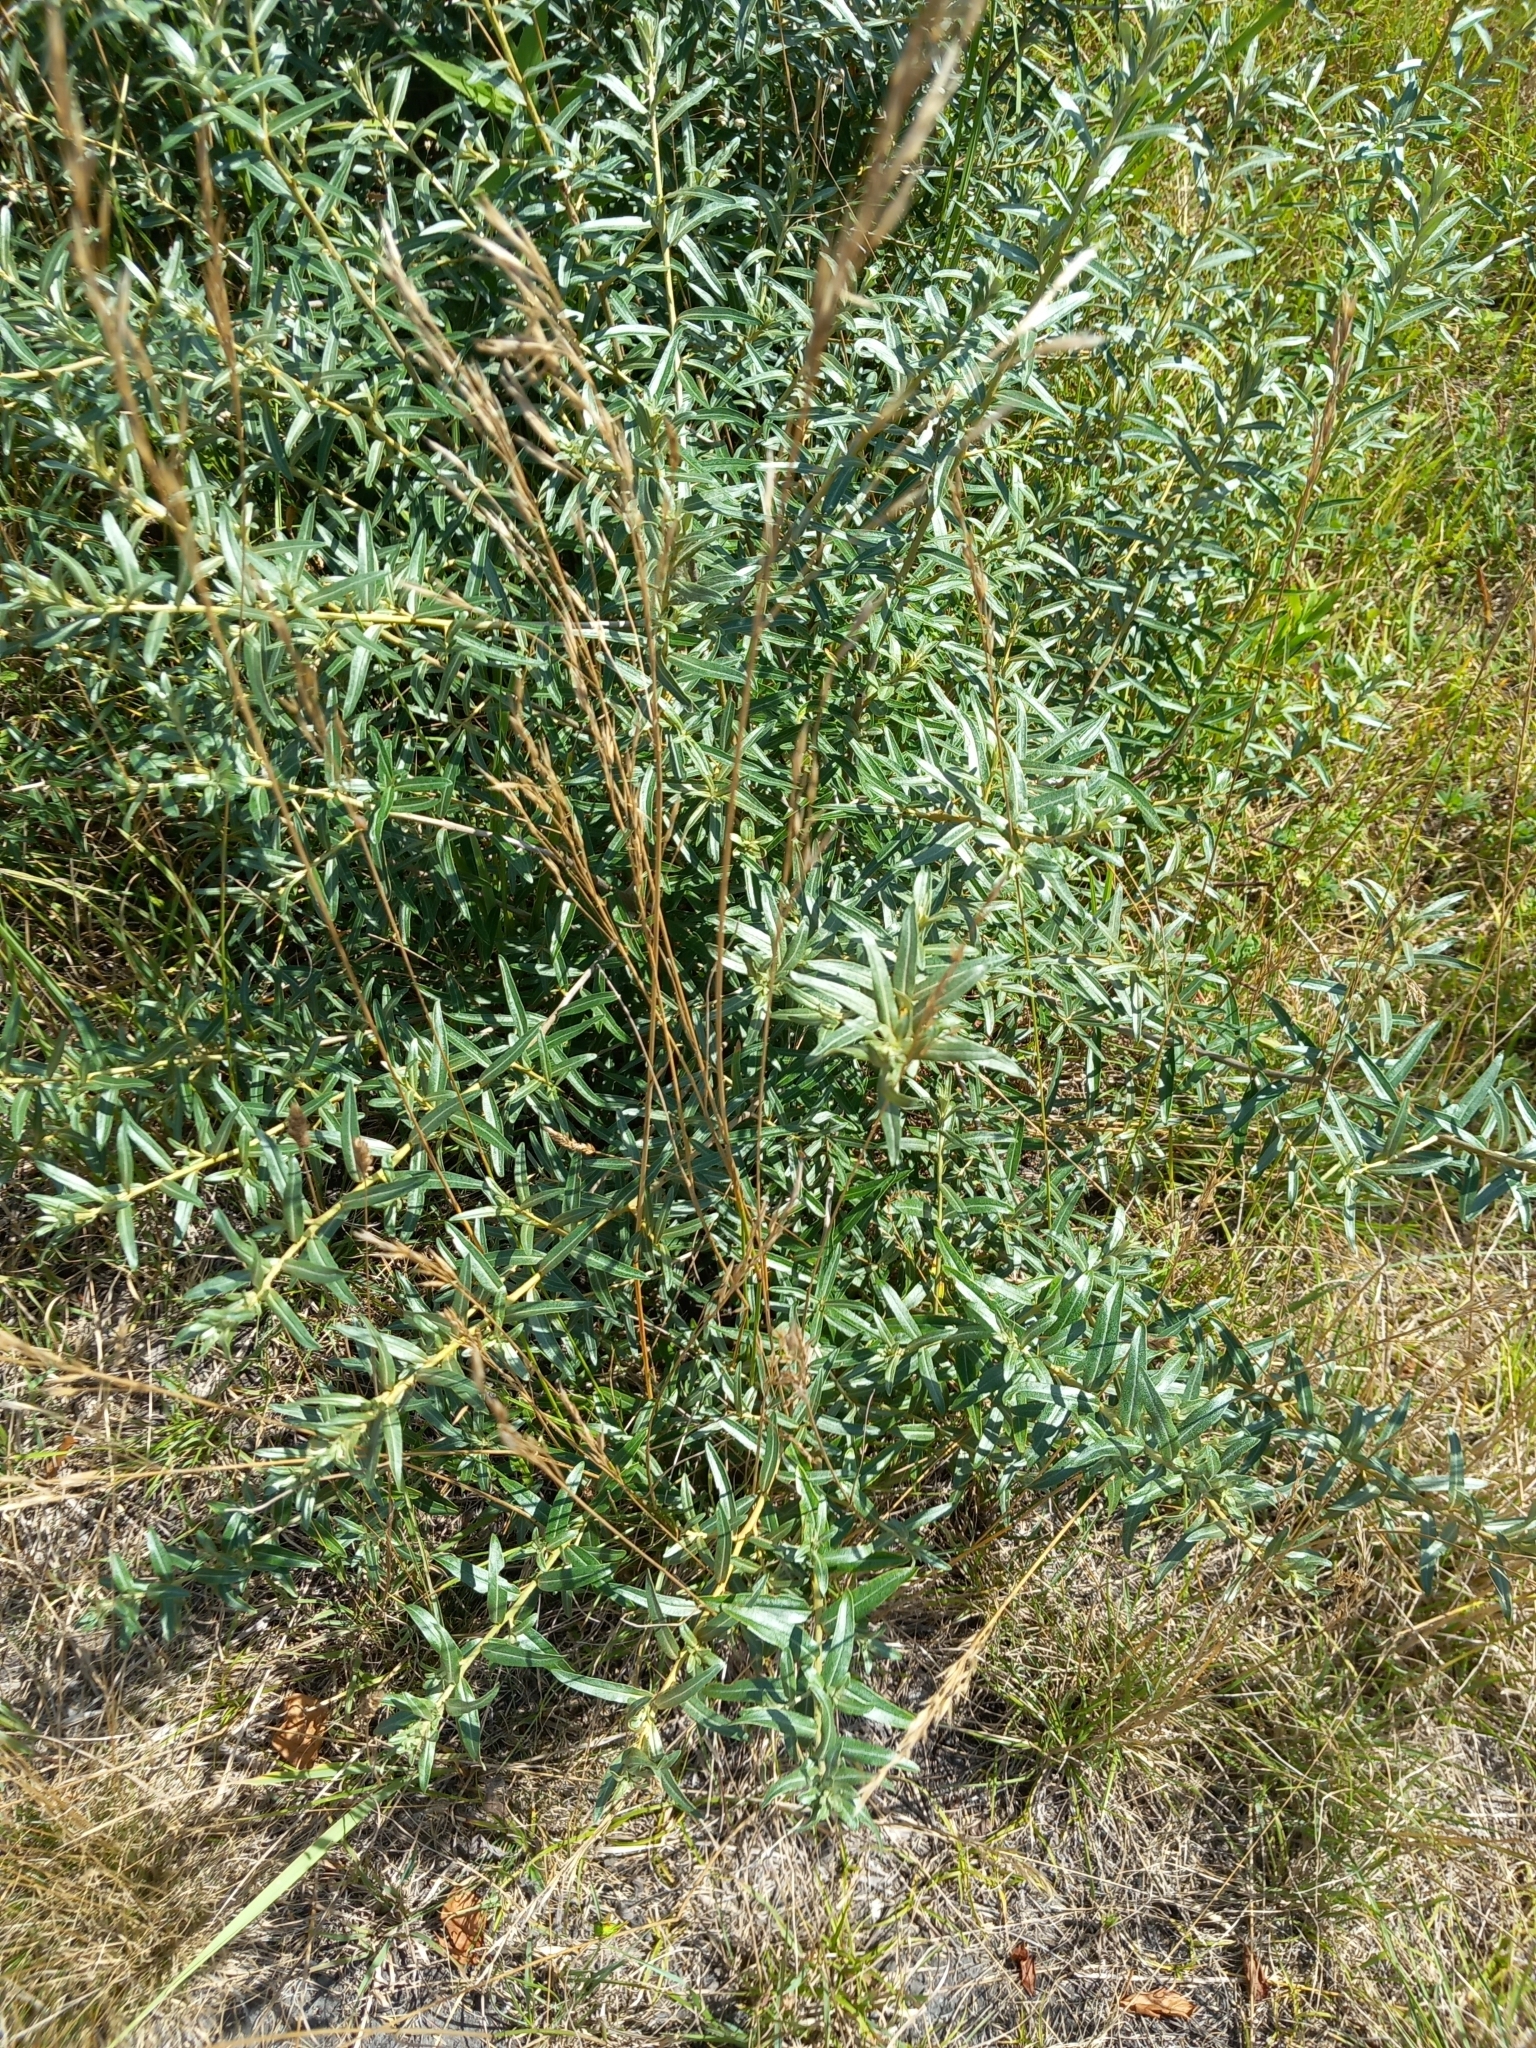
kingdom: Plantae
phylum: Tracheophyta
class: Magnoliopsida
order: Rosales
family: Elaeagnaceae
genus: Hippophae
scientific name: Hippophae rhamnoides
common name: Sea-buckthorn
